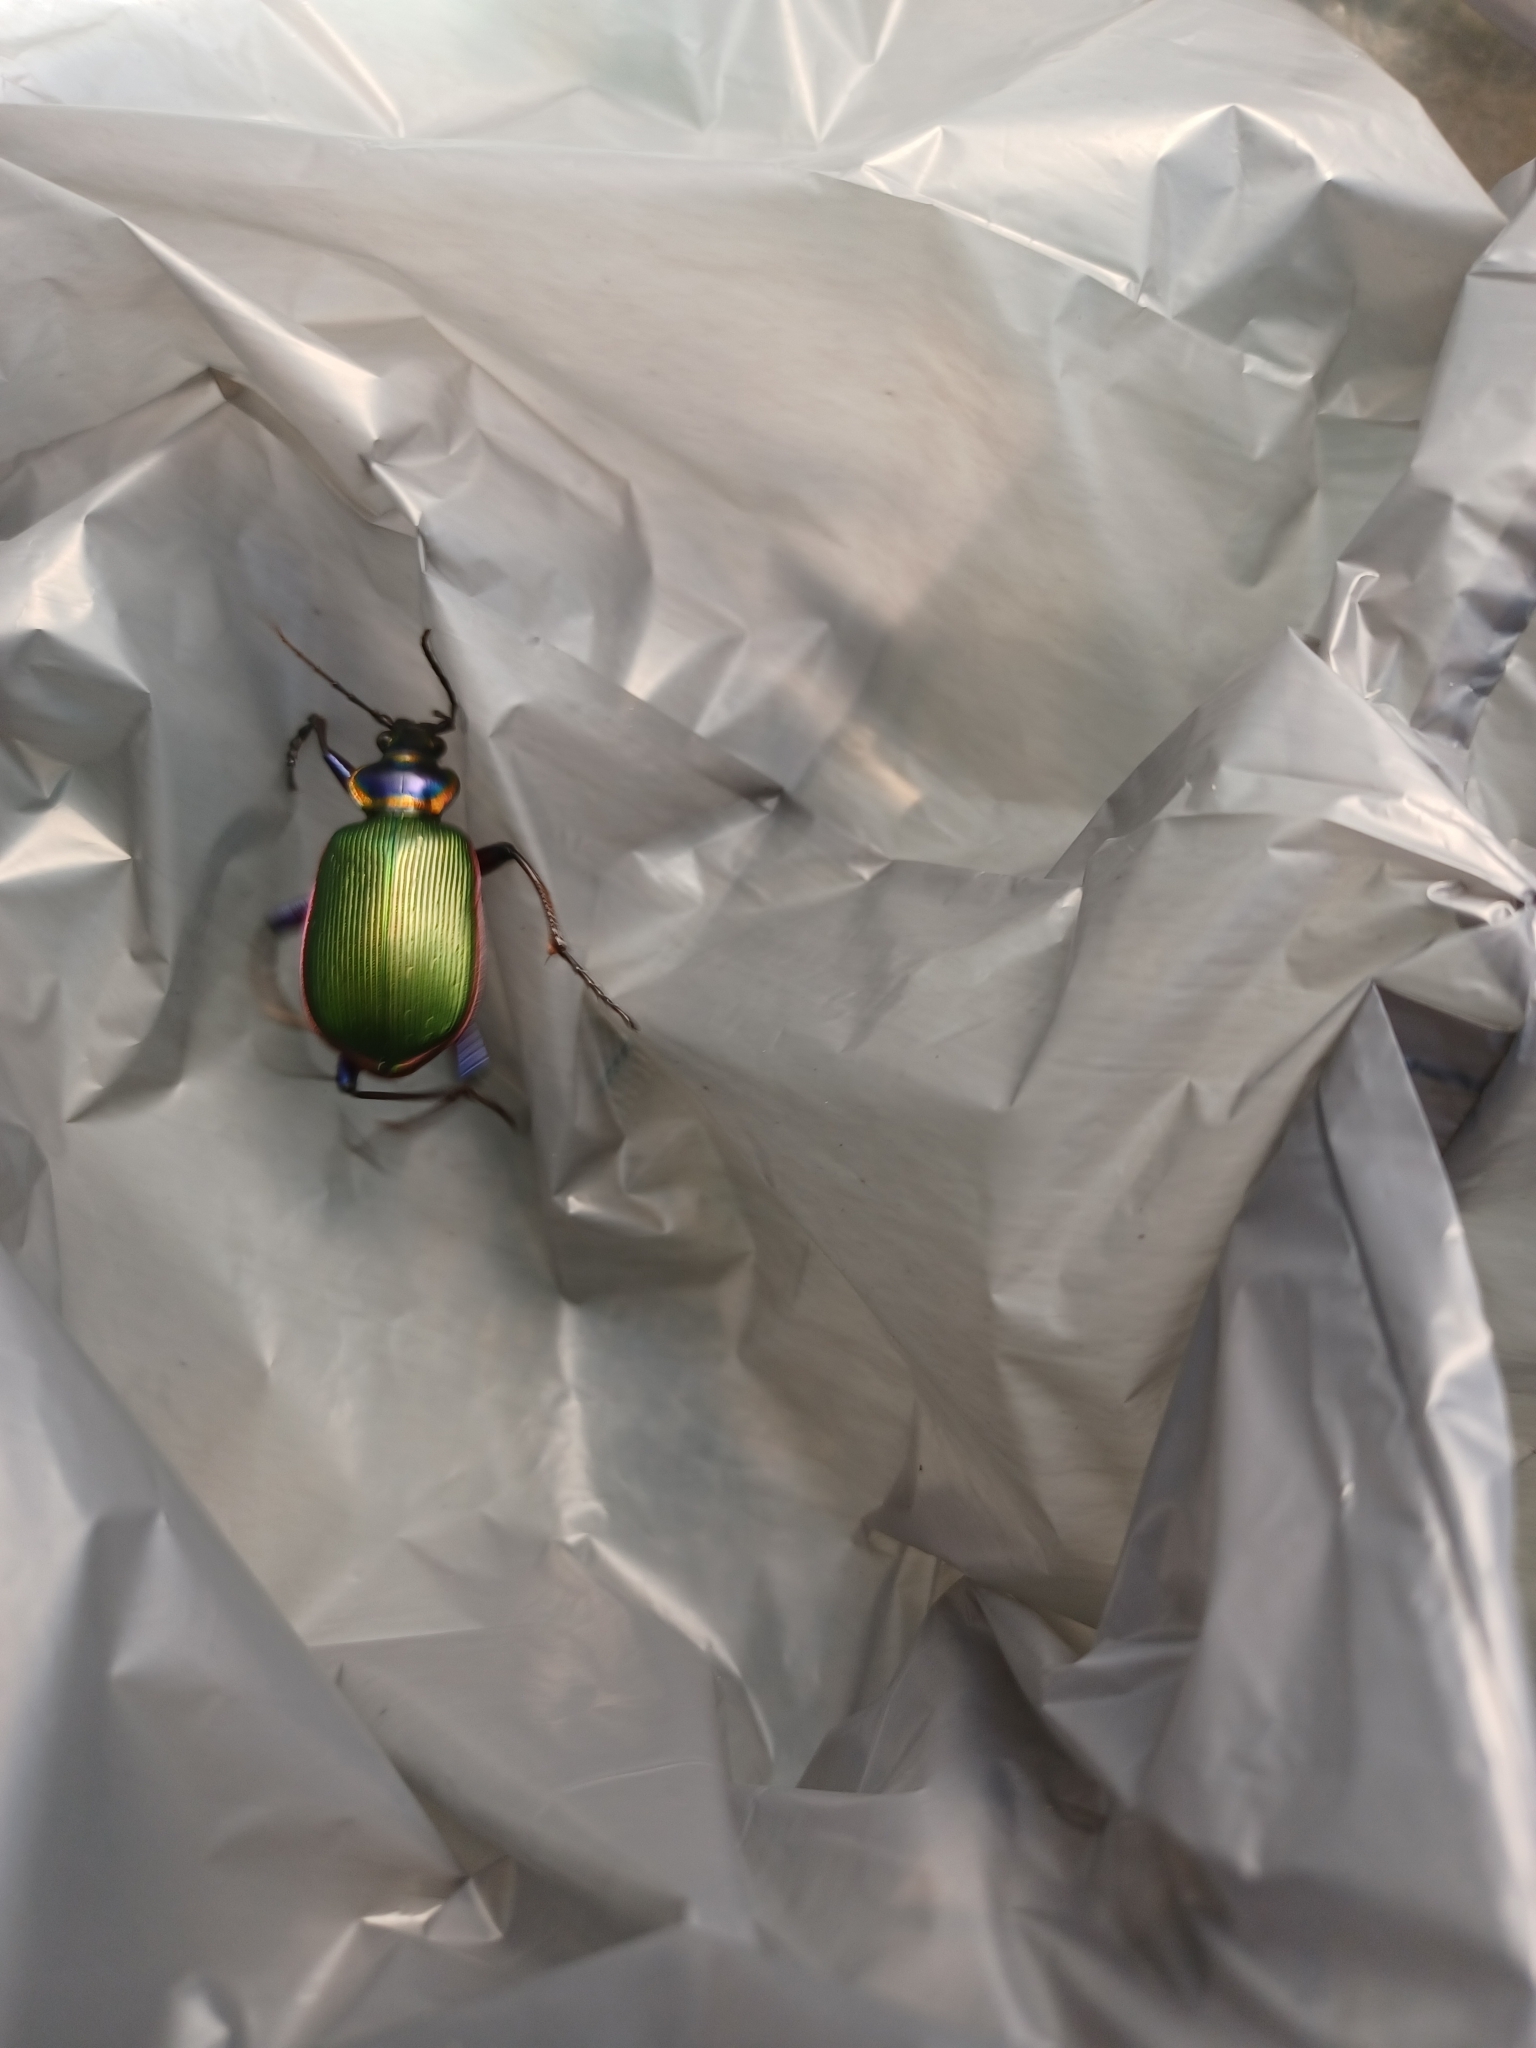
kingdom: Animalia
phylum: Arthropoda
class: Insecta
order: Coleoptera
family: Carabidae
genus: Calosoma
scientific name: Calosoma scrutator
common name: Fiery searcher beetle
